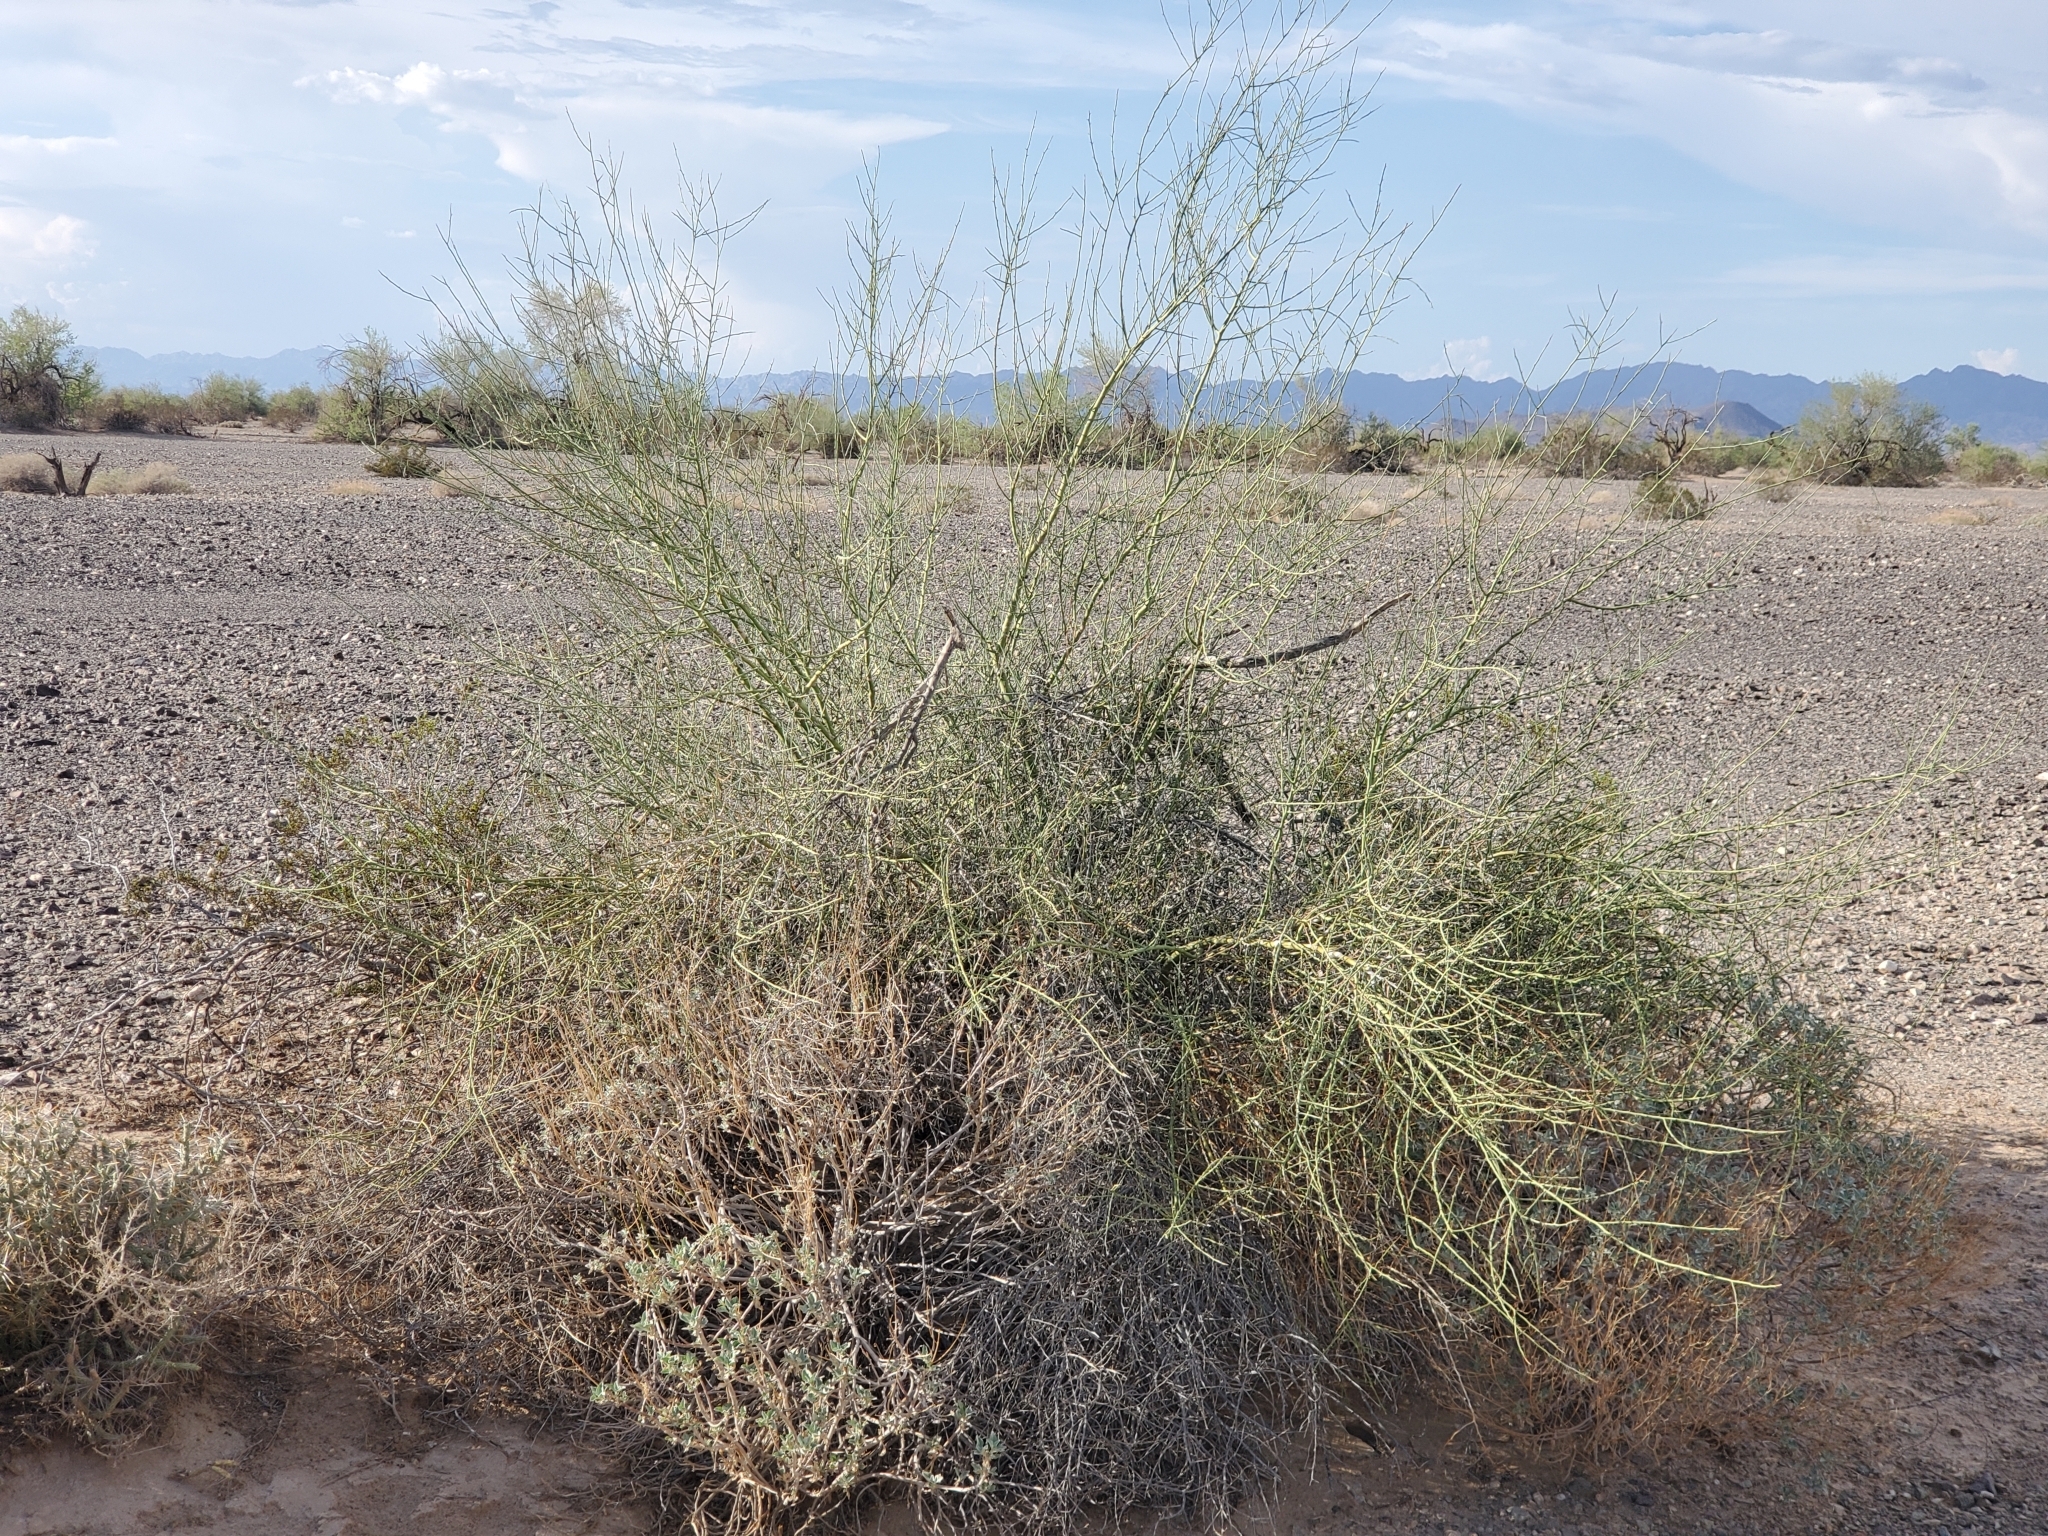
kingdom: Plantae
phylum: Tracheophyta
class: Magnoliopsida
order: Fabales
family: Fabaceae
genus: Parkinsonia
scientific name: Parkinsonia florida
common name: Blue paloverde
